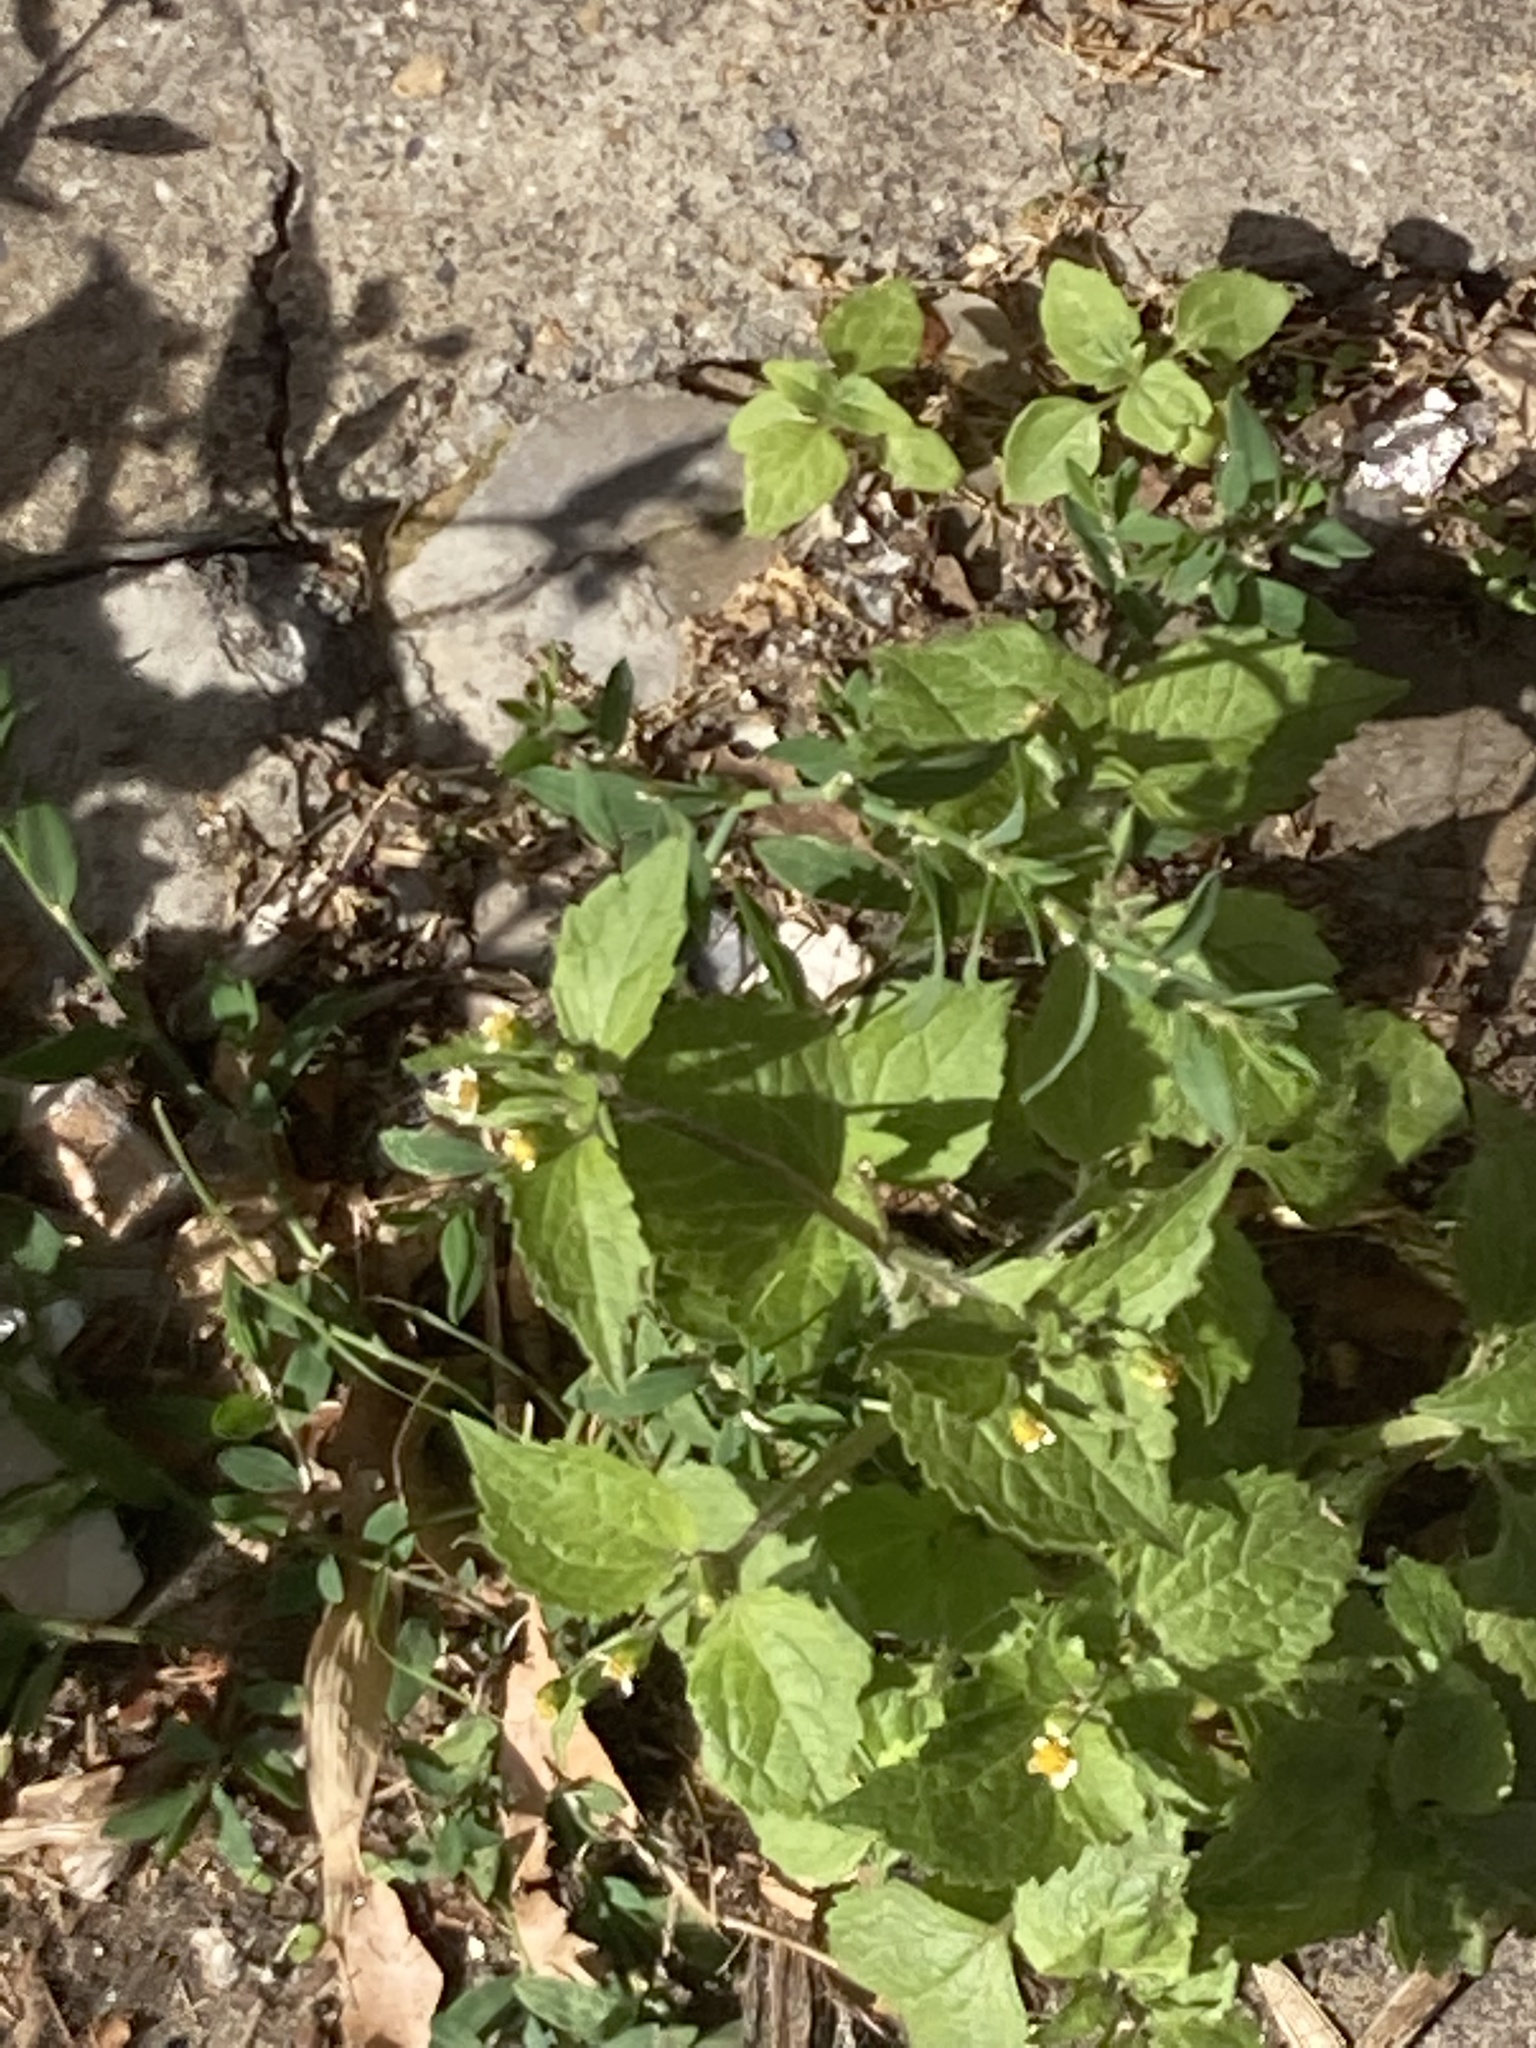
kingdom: Plantae
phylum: Tracheophyta
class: Magnoliopsida
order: Asterales
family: Asteraceae
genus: Galinsoga
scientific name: Galinsoga quadriradiata
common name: Shaggy soldier
